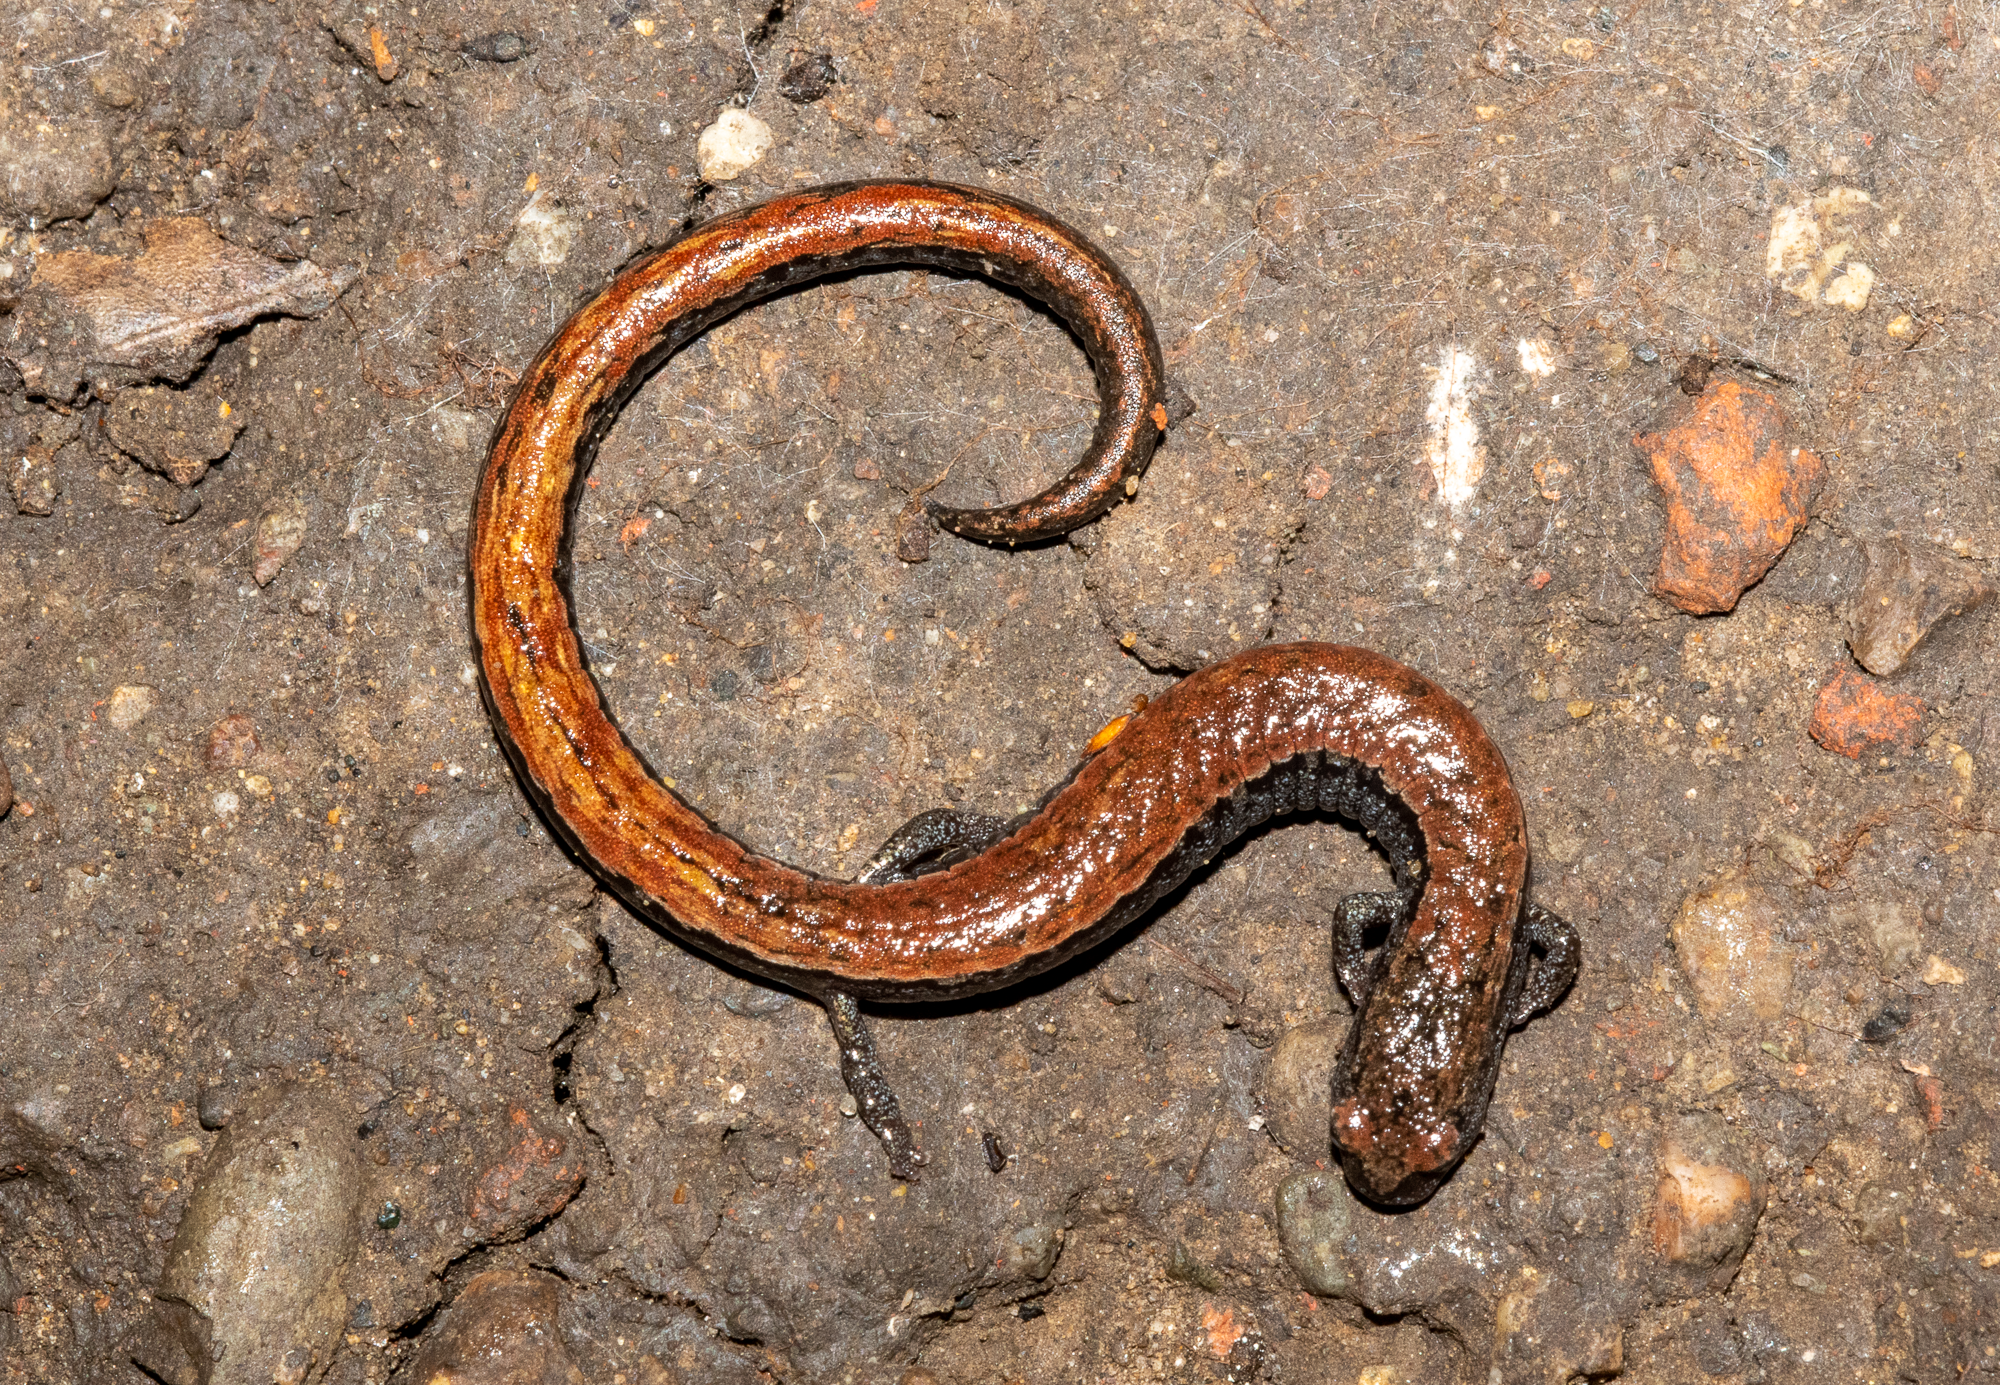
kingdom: Animalia
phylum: Chordata
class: Amphibia
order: Caudata
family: Plethodontidae
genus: Batrachoseps
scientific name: Batrachoseps attenuatus
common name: California slender salamander
